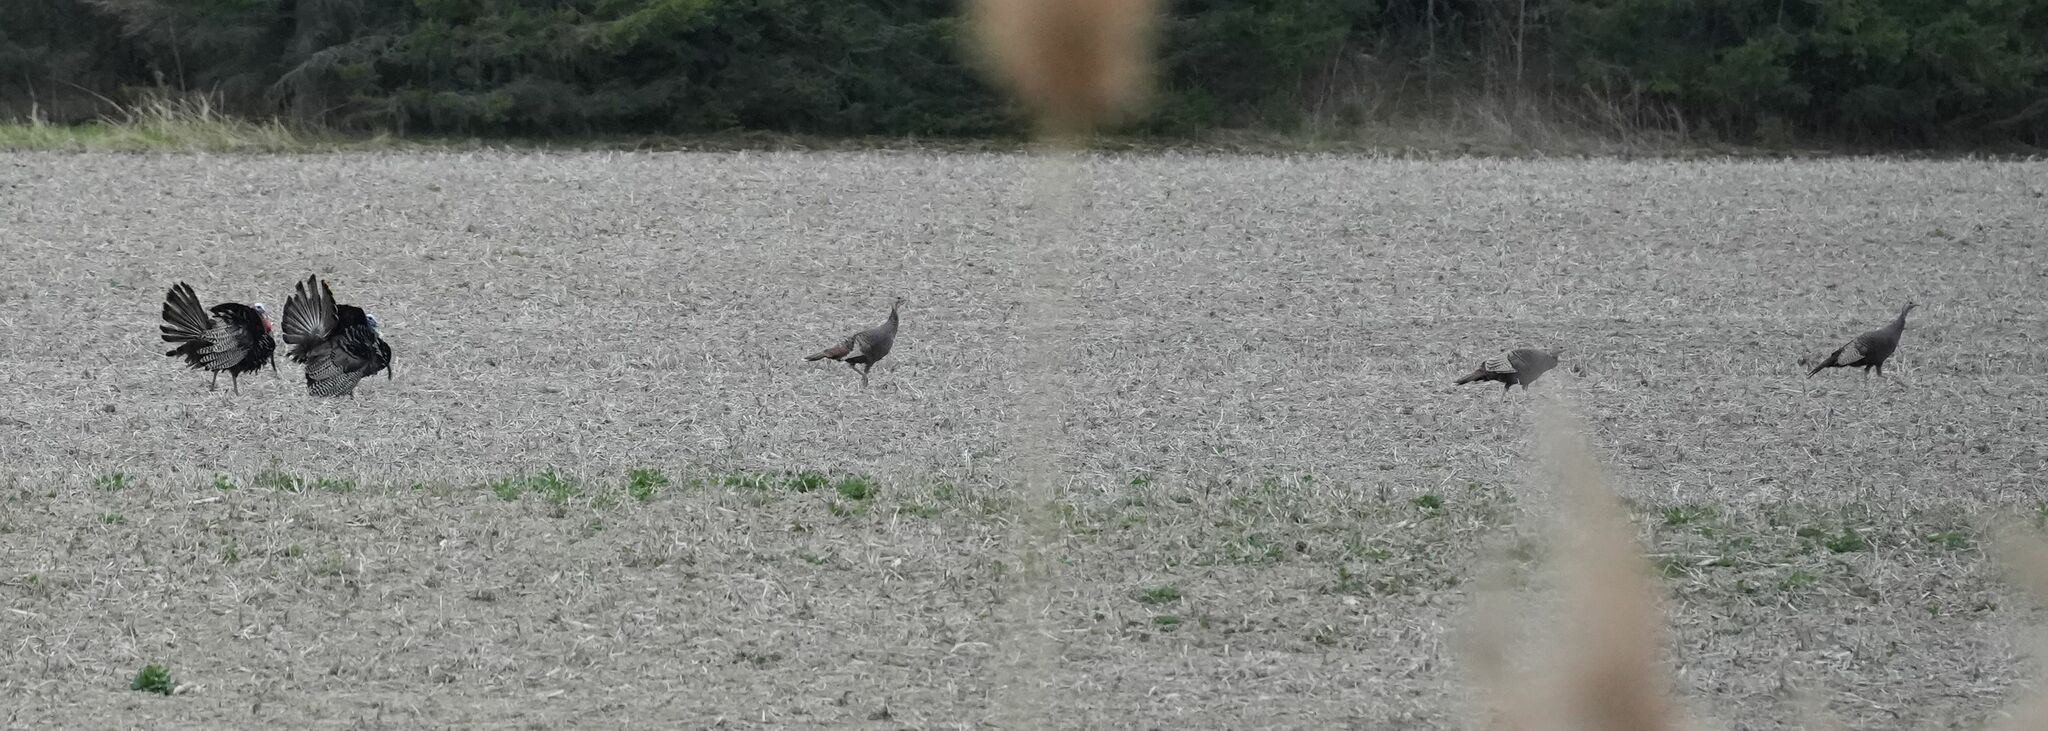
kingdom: Animalia
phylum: Chordata
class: Aves
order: Galliformes
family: Phasianidae
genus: Meleagris
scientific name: Meleagris gallopavo
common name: Wild turkey
